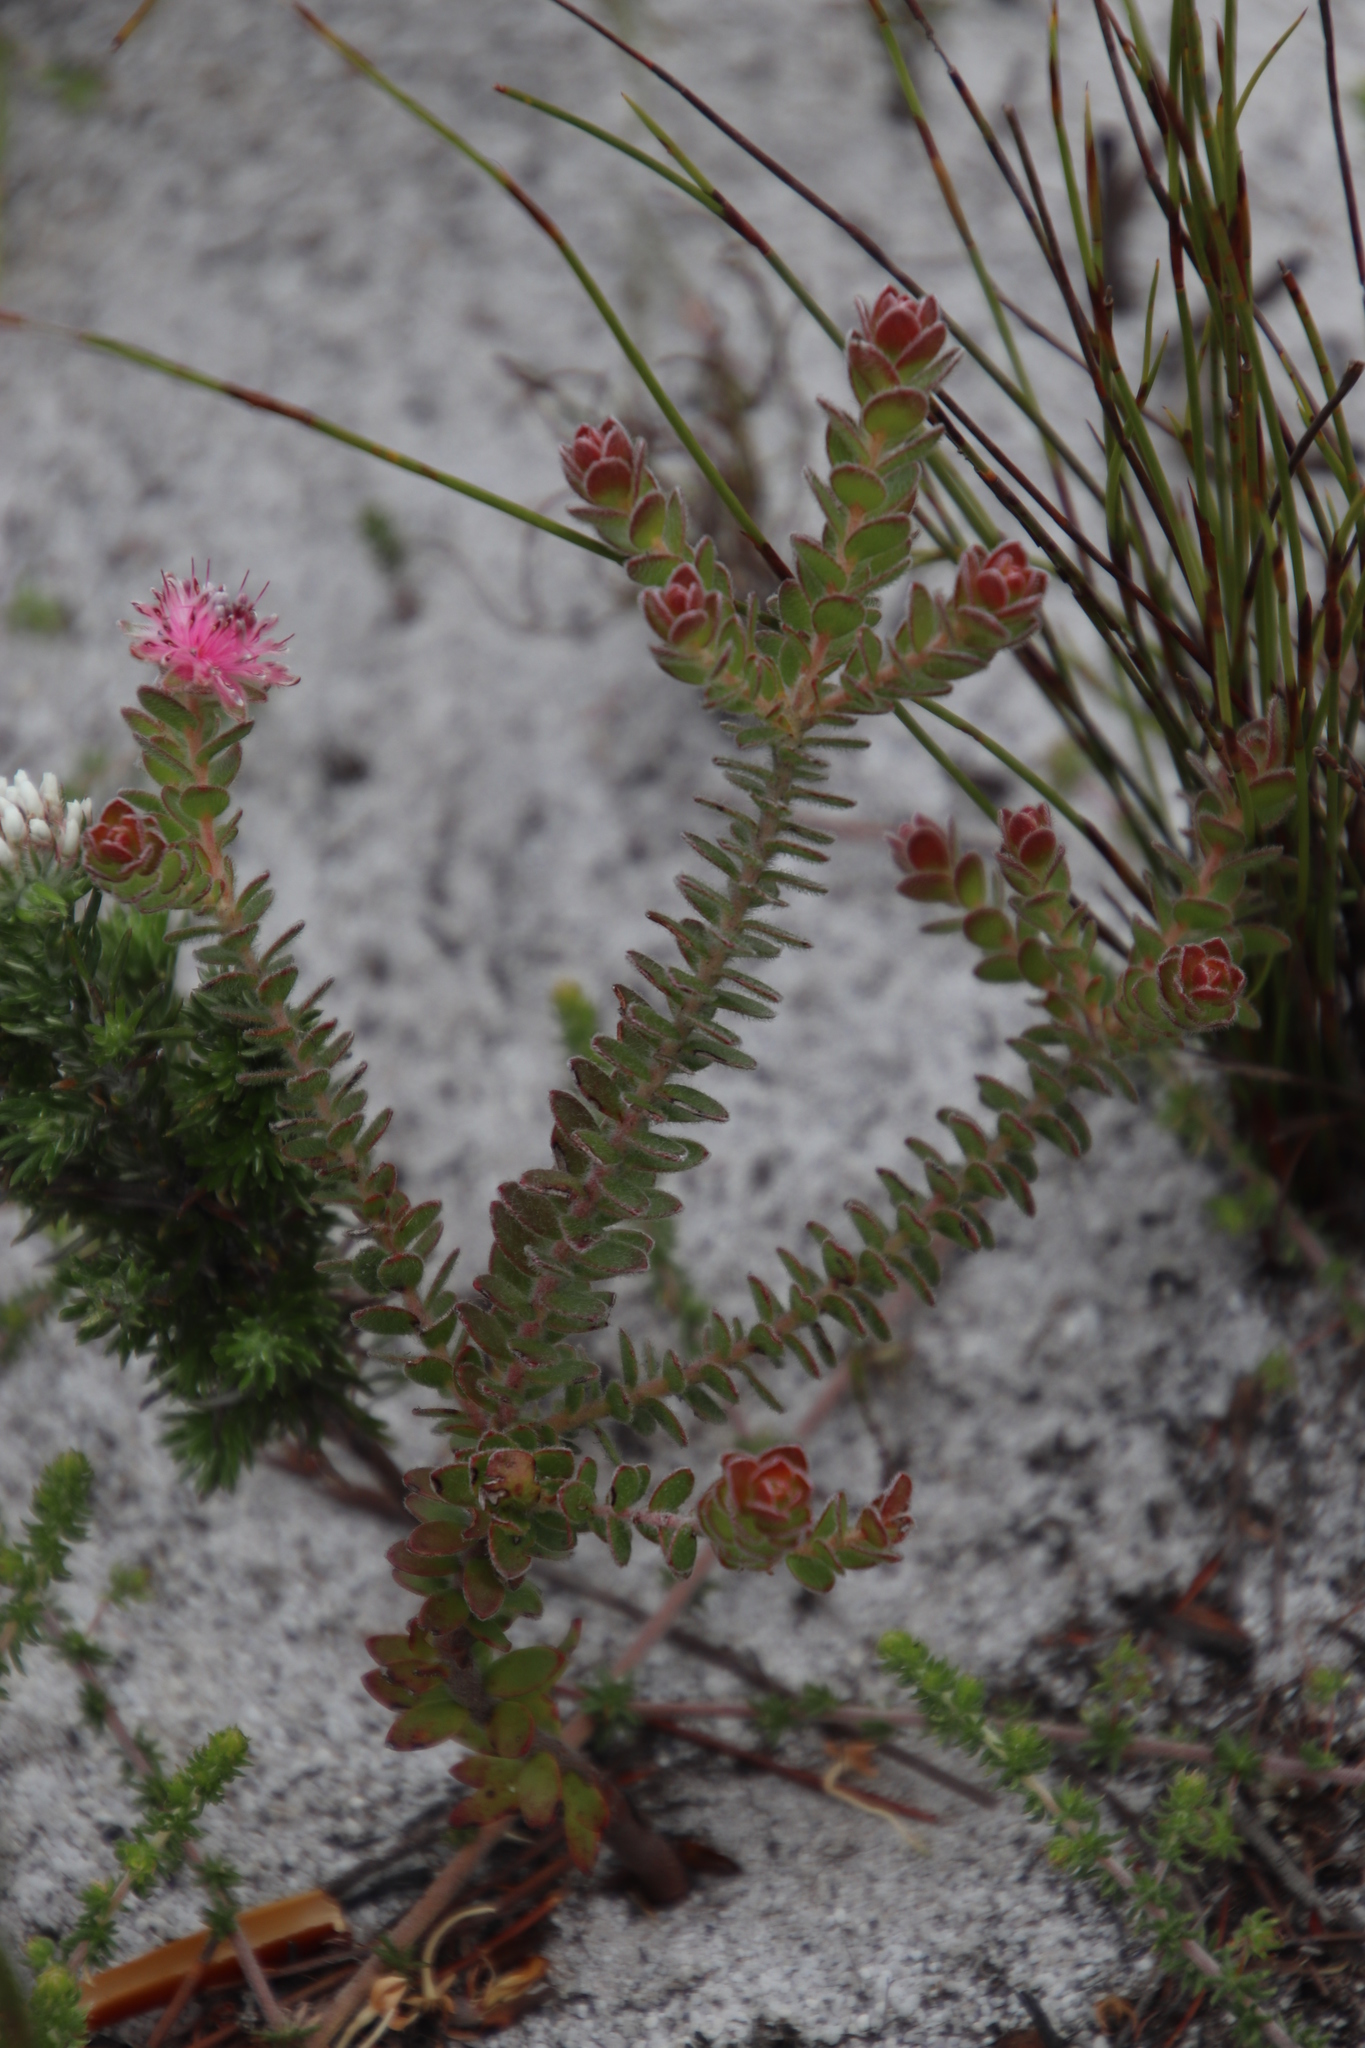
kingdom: Plantae
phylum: Tracheophyta
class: Magnoliopsida
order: Proteales
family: Proteaceae
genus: Diastella
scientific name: Diastella divaricata
